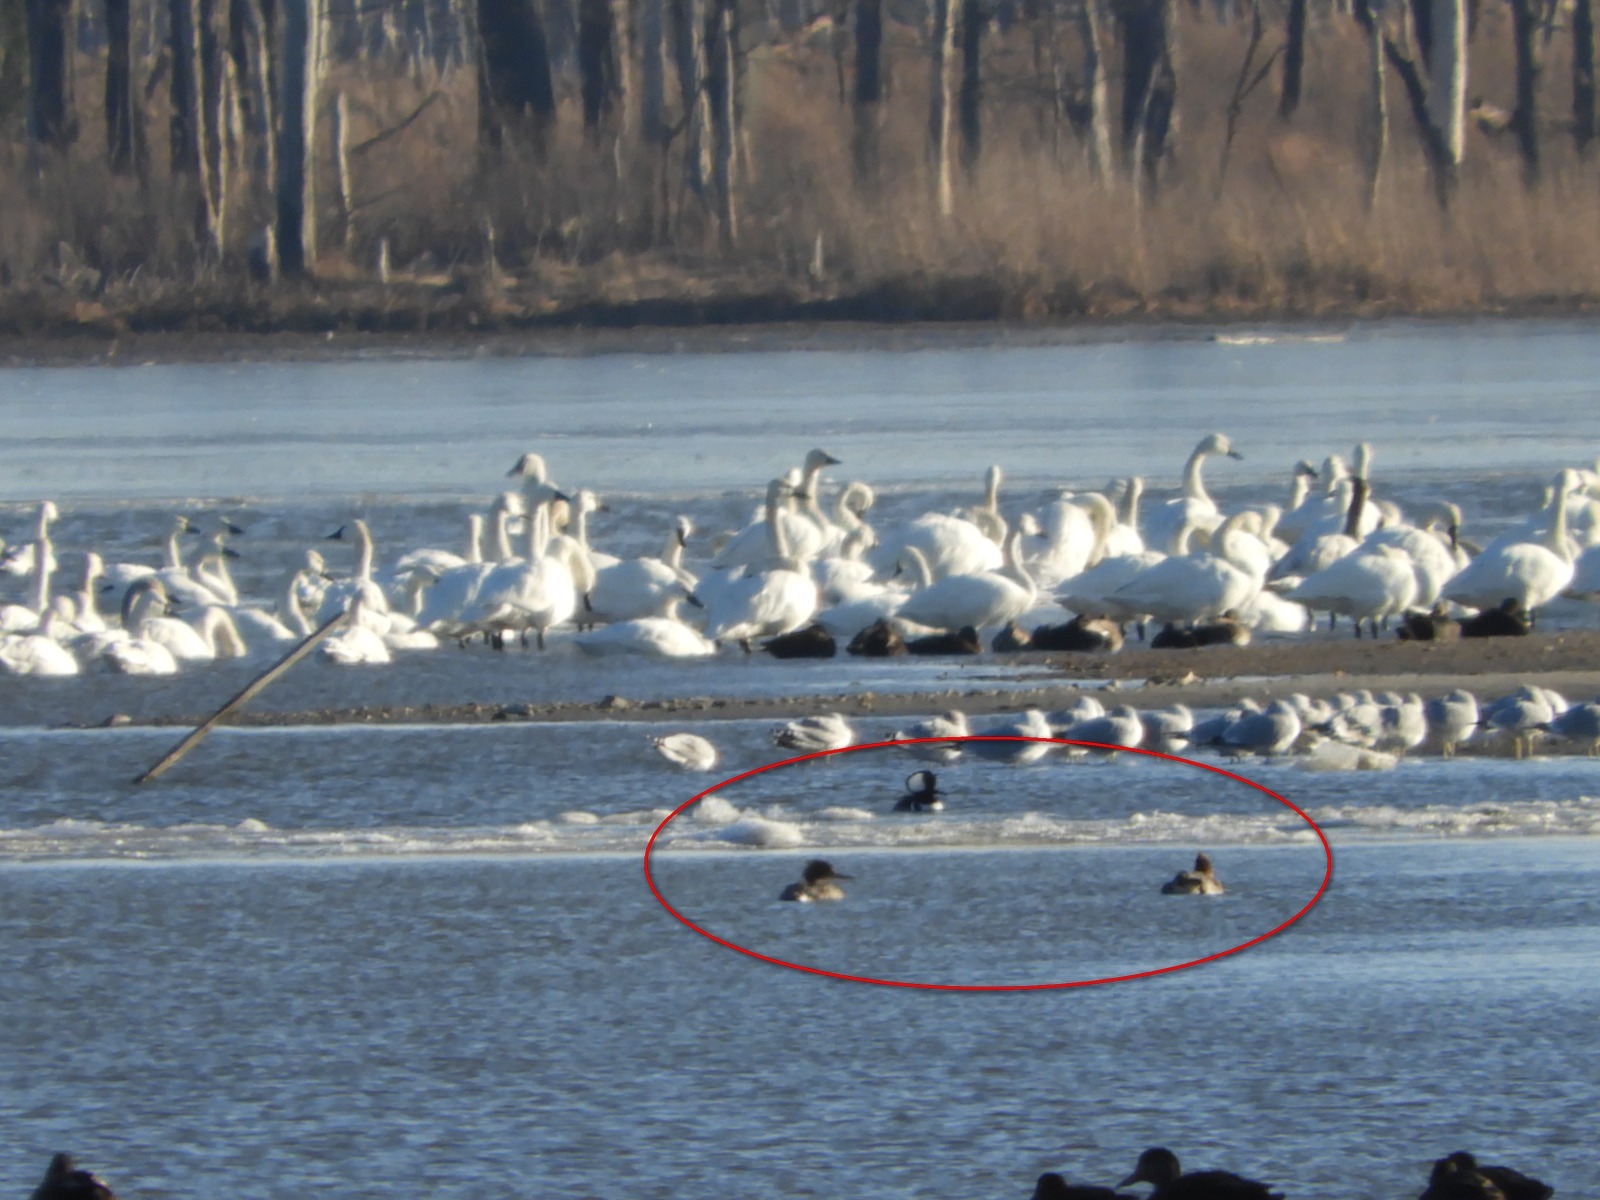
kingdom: Animalia
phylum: Chordata
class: Aves
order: Anseriformes
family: Anatidae
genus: Lophodytes
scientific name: Lophodytes cucullatus
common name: Hooded merganser
